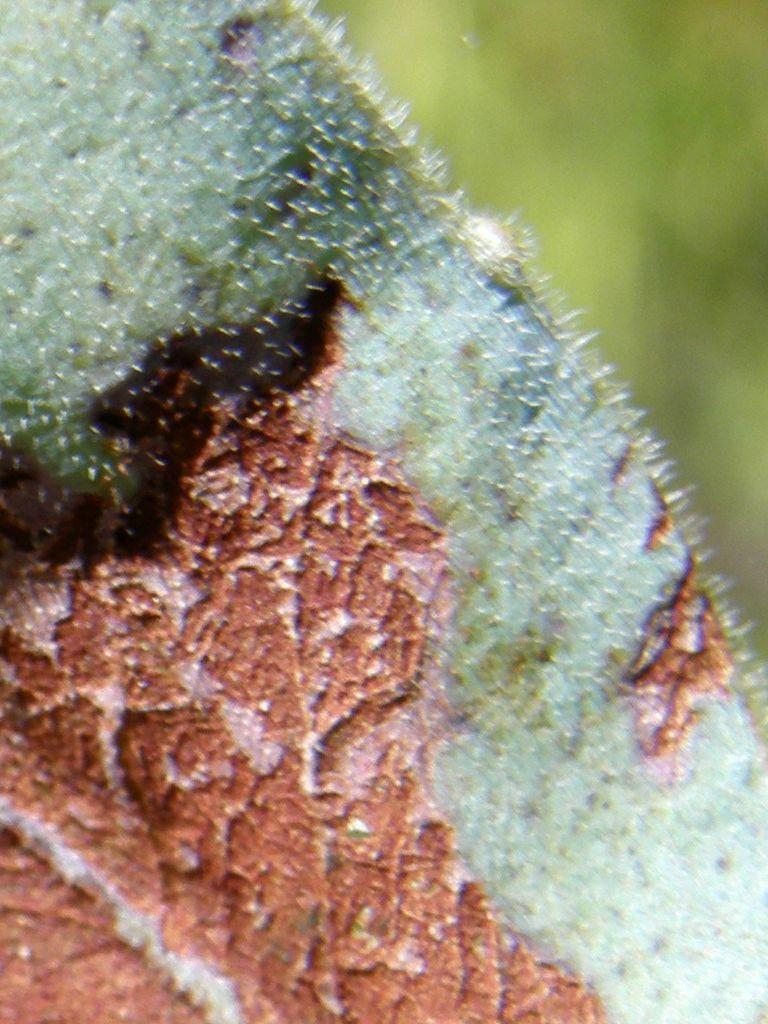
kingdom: Plantae
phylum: Tracheophyta
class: Magnoliopsida
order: Fabales
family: Fabaceae
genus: Acacia
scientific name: Acacia podalyriifolia
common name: Pearl wattle
